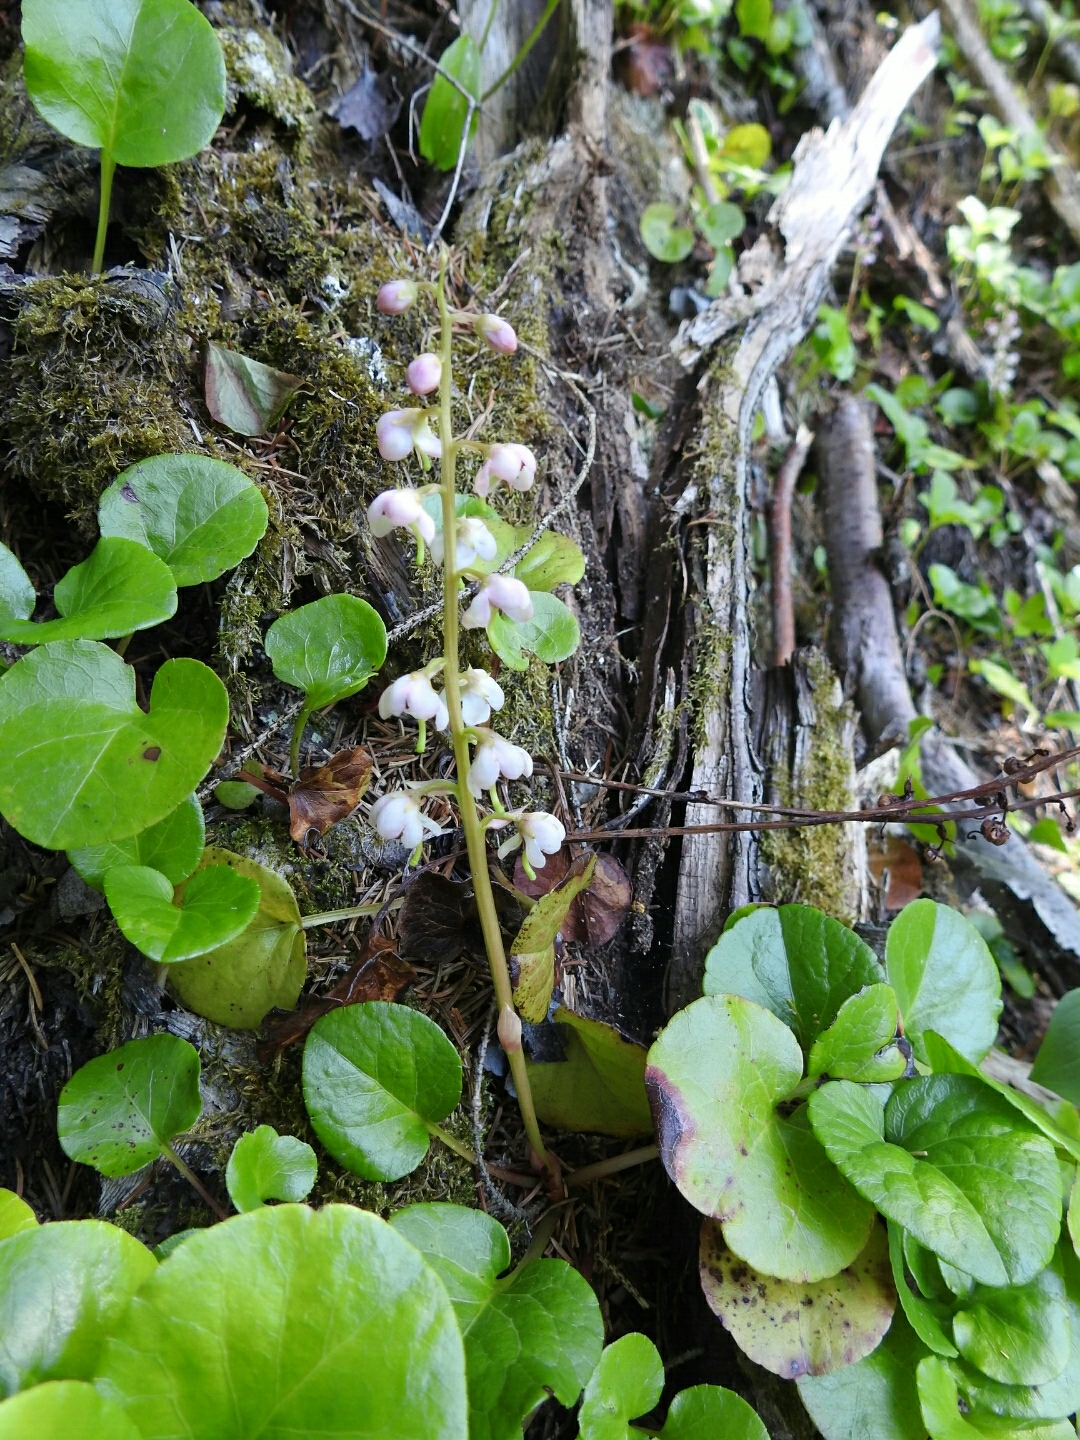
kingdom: Plantae
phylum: Tracheophyta
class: Magnoliopsida
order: Ericales
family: Ericaceae
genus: Pyrola
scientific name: Pyrola asarifolia
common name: Bog wintergreen
